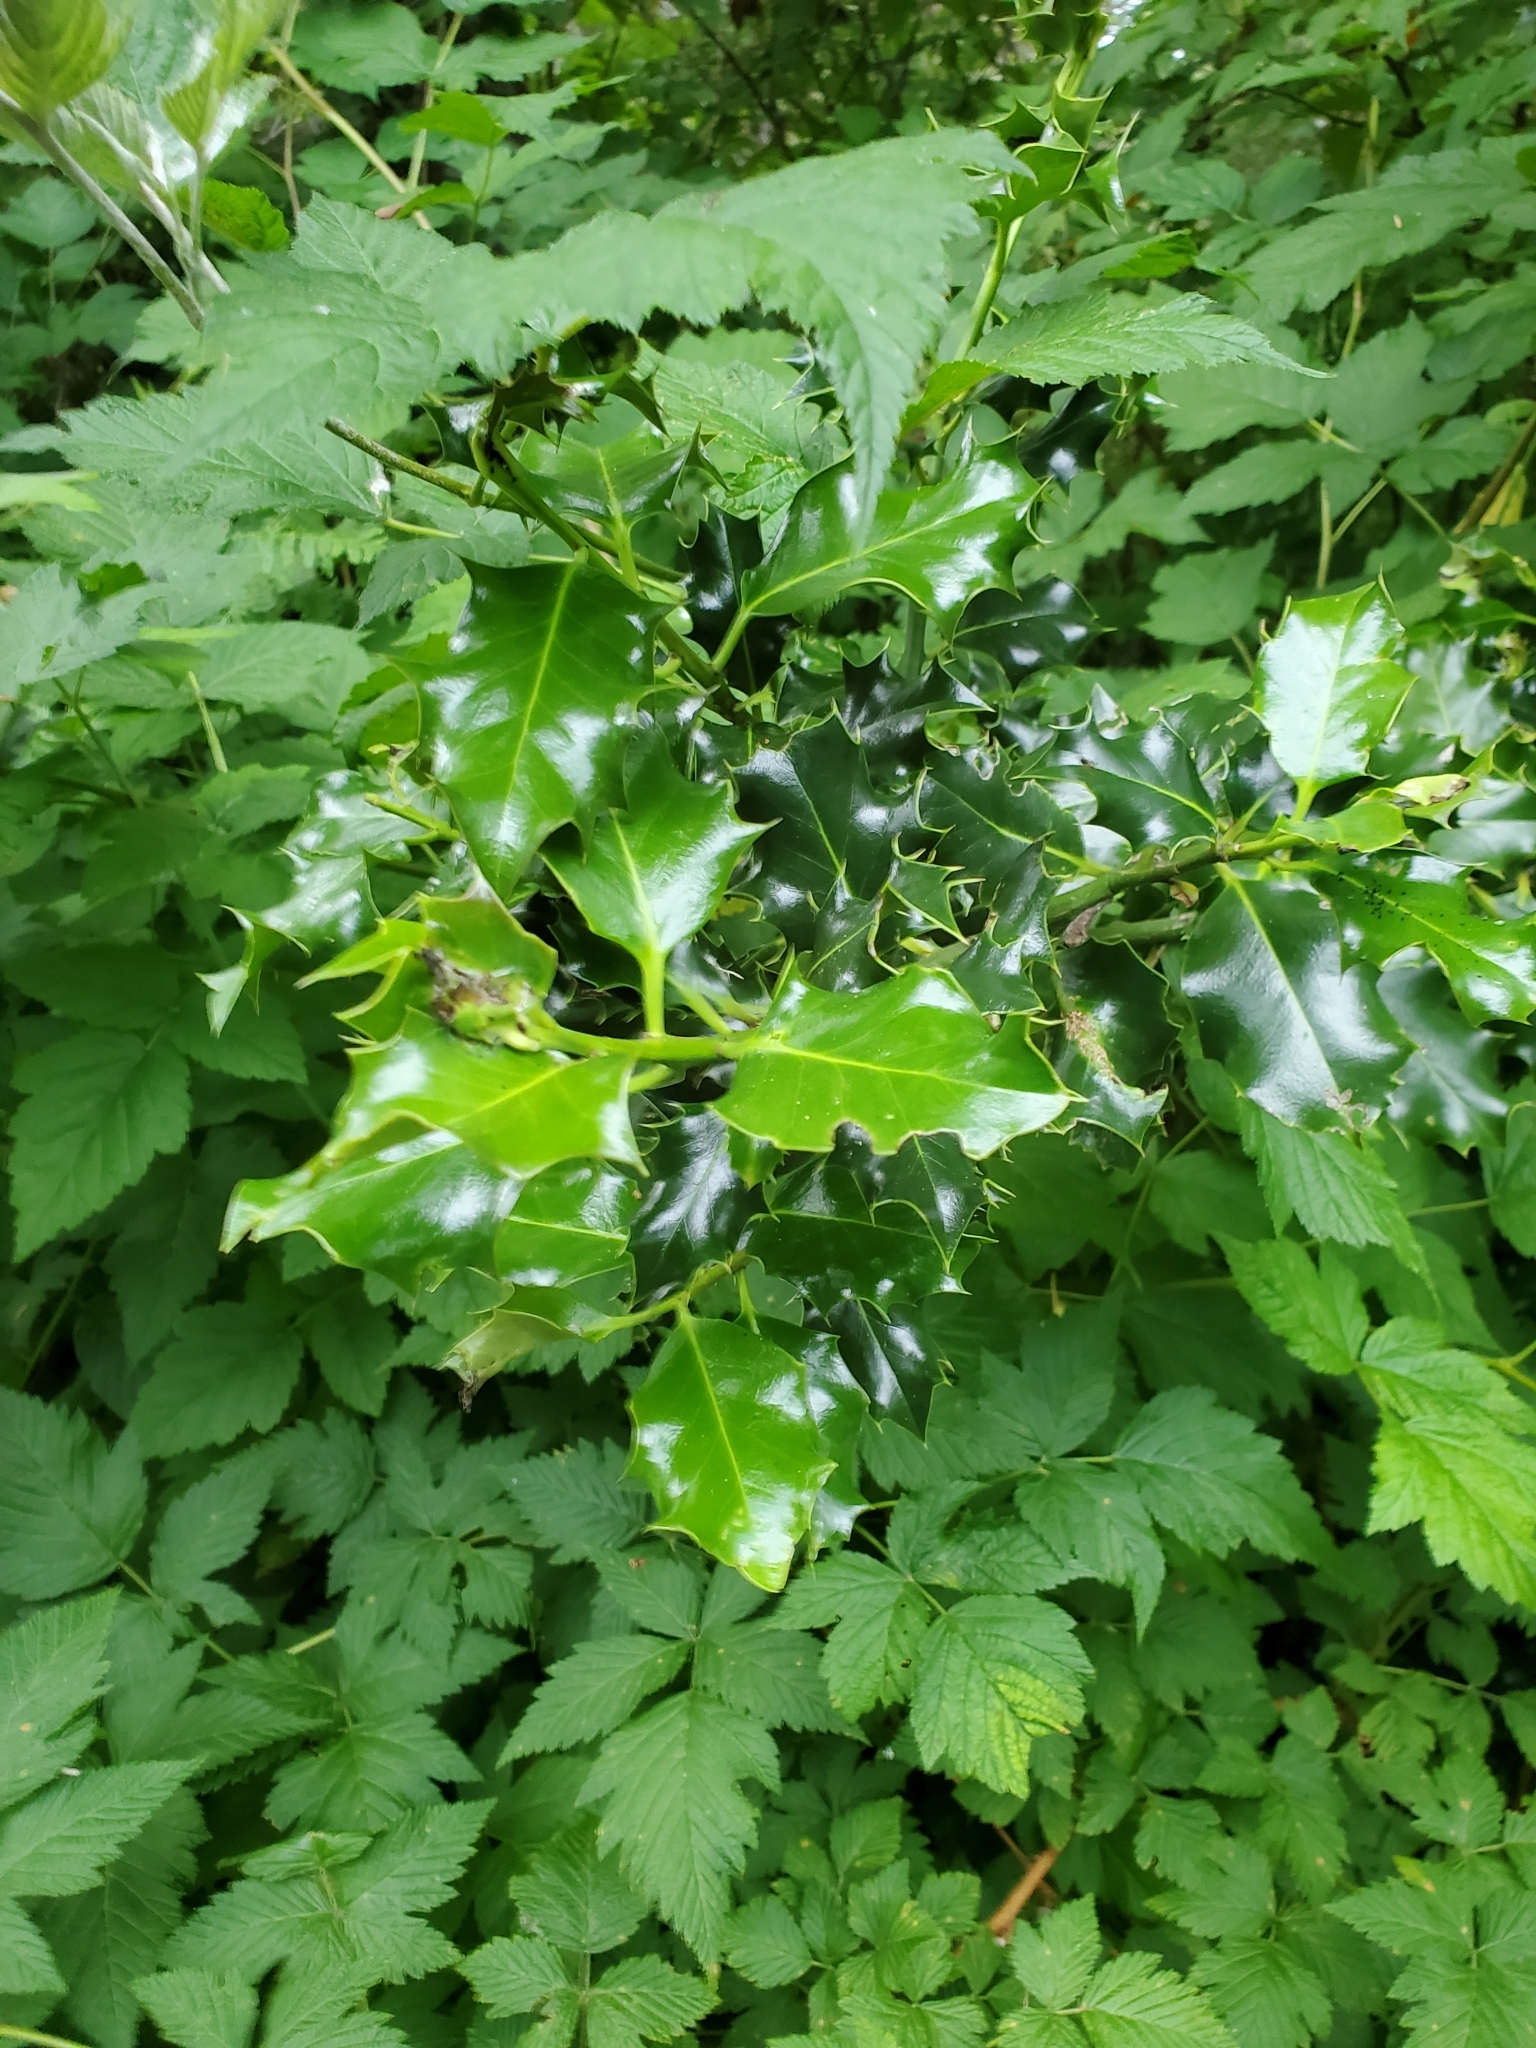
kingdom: Plantae
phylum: Tracheophyta
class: Magnoliopsida
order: Aquifoliales
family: Aquifoliaceae
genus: Ilex
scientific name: Ilex aquifolium
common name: English holly
